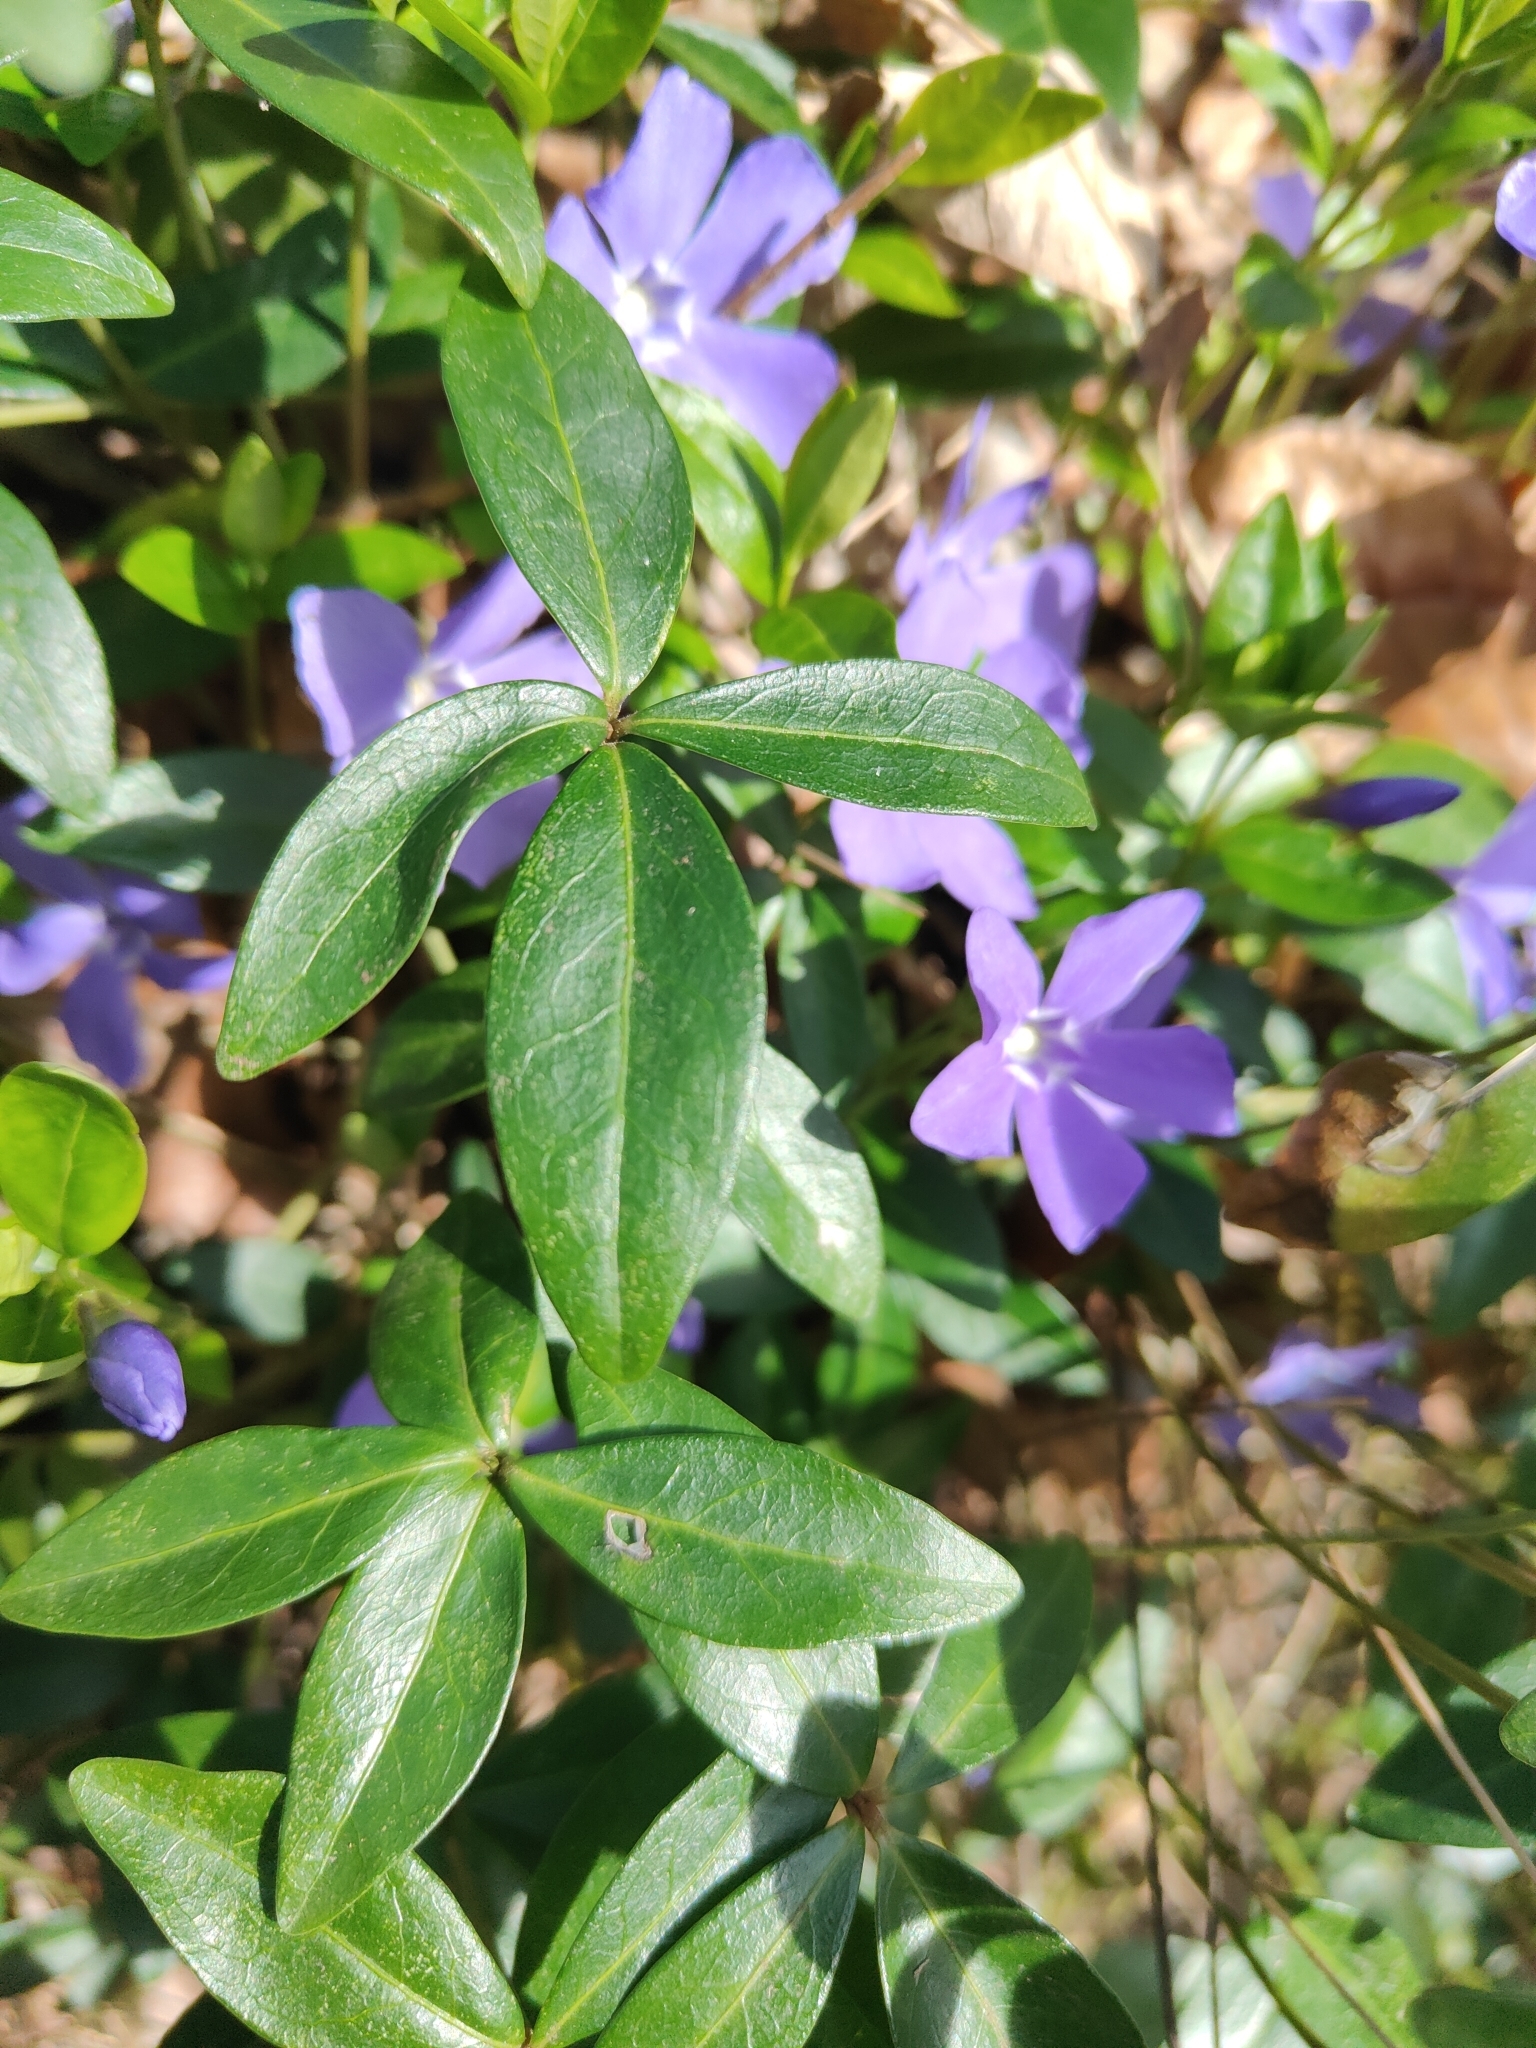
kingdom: Plantae
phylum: Tracheophyta
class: Magnoliopsida
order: Gentianales
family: Apocynaceae
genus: Vinca
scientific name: Vinca minor
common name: Lesser periwinkle
